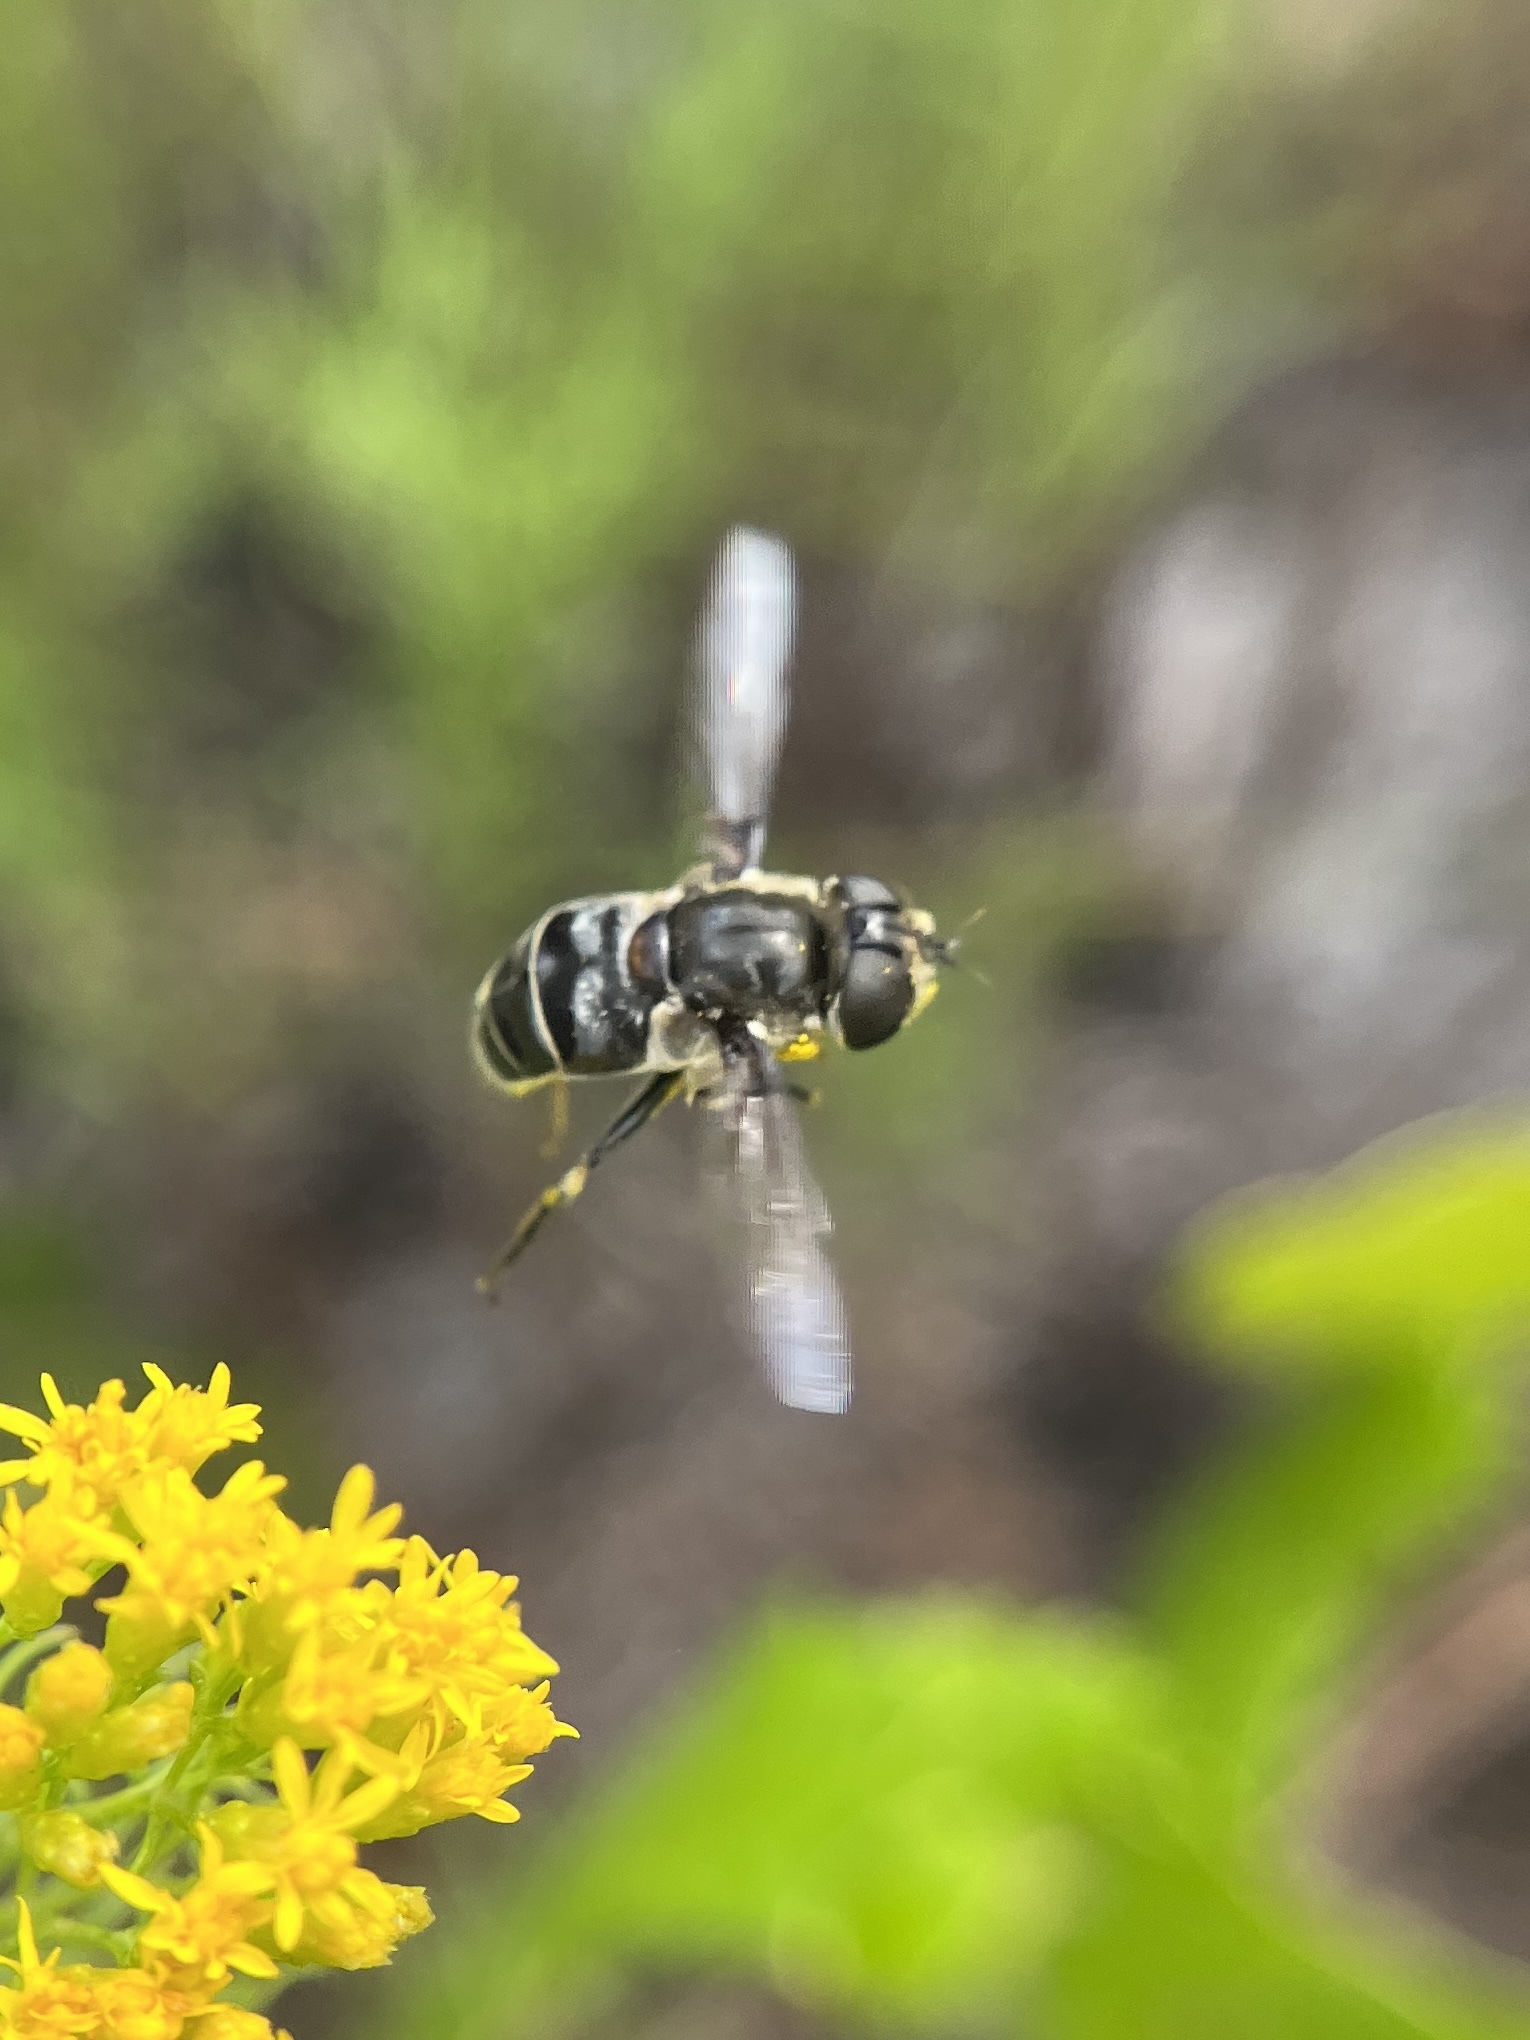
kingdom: Animalia
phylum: Arthropoda
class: Insecta
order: Diptera
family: Syrphidae
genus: Eristalis
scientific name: Eristalis dimidiata
